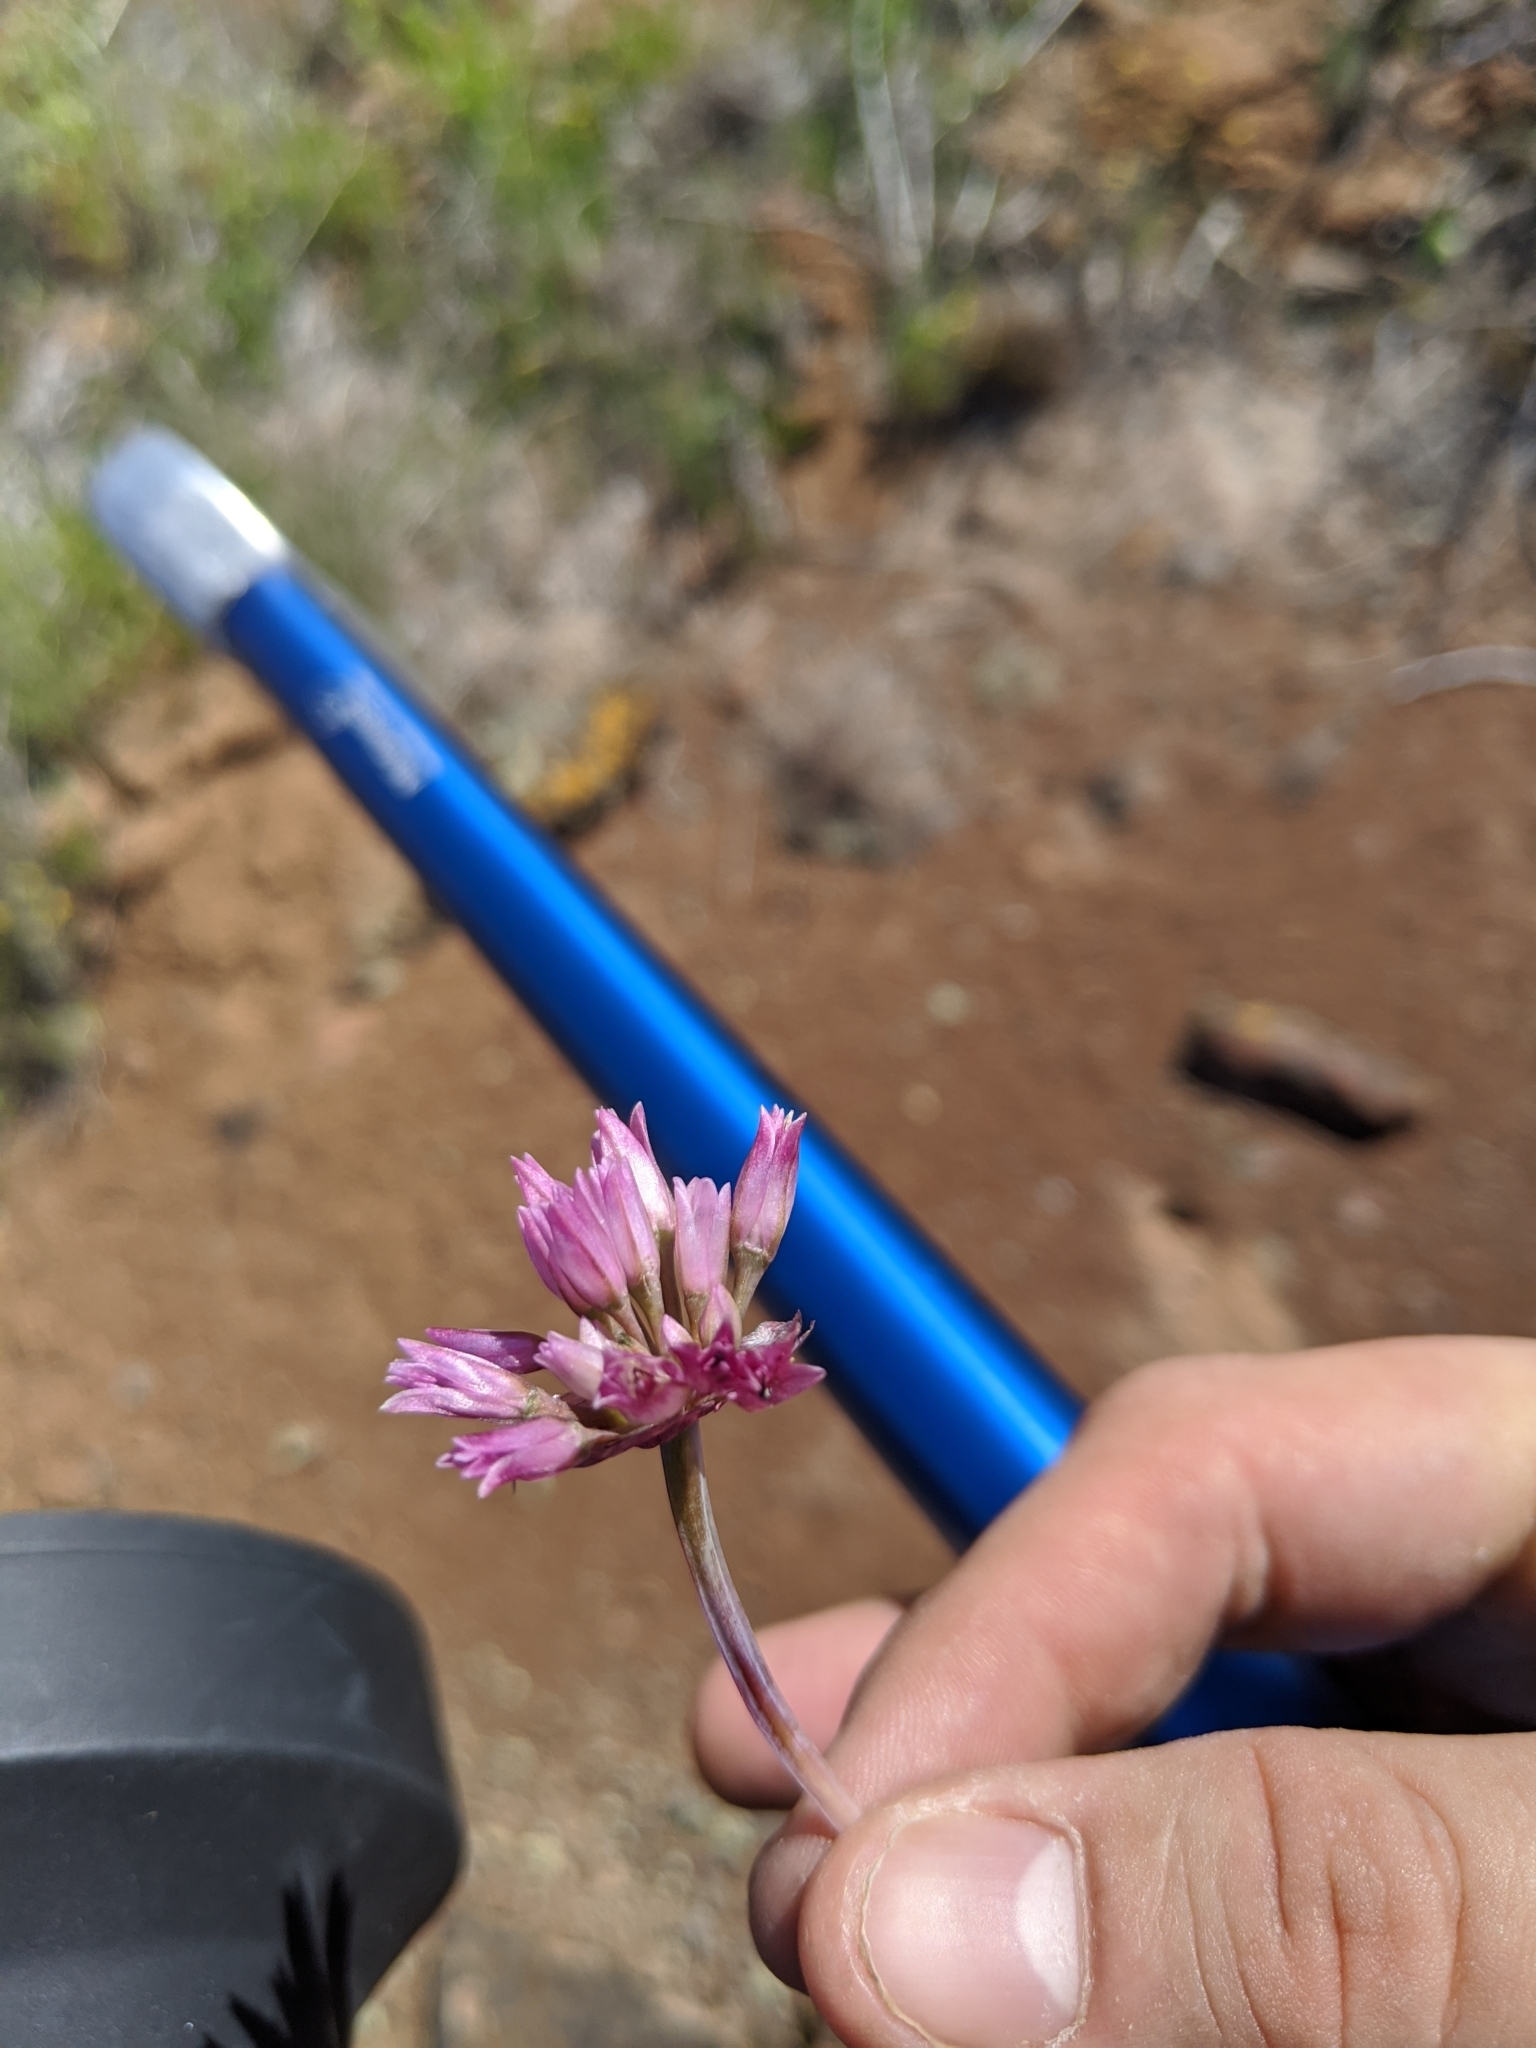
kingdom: Plantae
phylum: Tracheophyta
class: Liliopsida
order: Asparagales
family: Amaryllidaceae
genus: Allium
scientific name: Allium robinsonii
